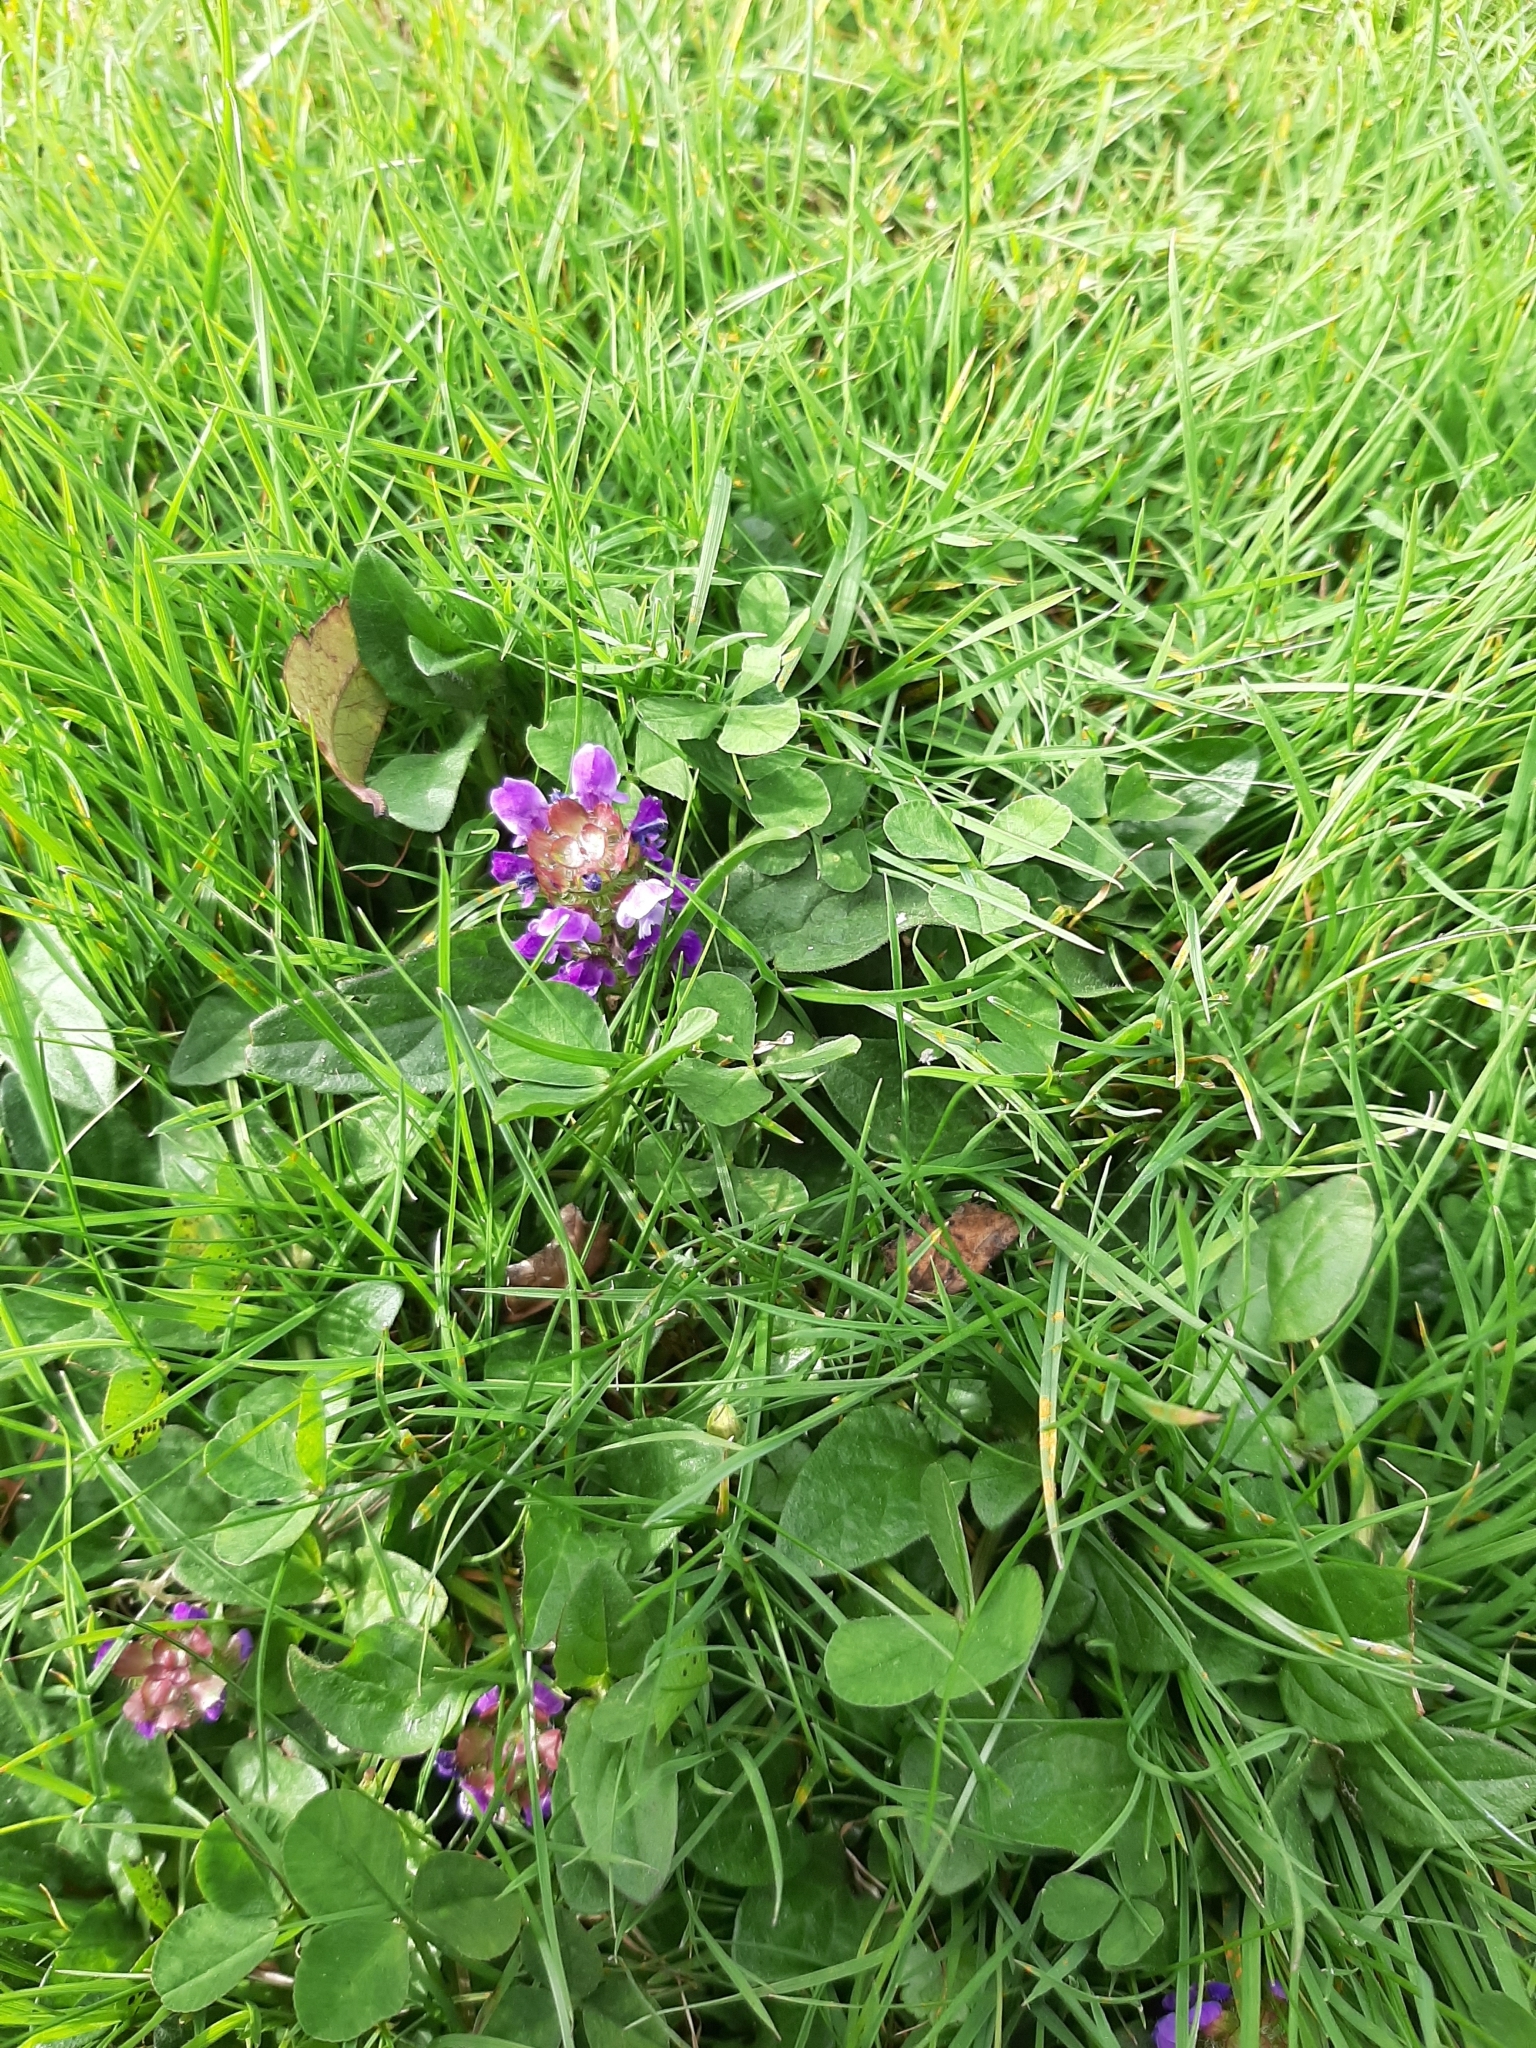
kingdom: Plantae
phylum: Tracheophyta
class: Magnoliopsida
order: Lamiales
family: Lamiaceae
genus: Prunella
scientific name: Prunella vulgaris
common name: Heal-all
